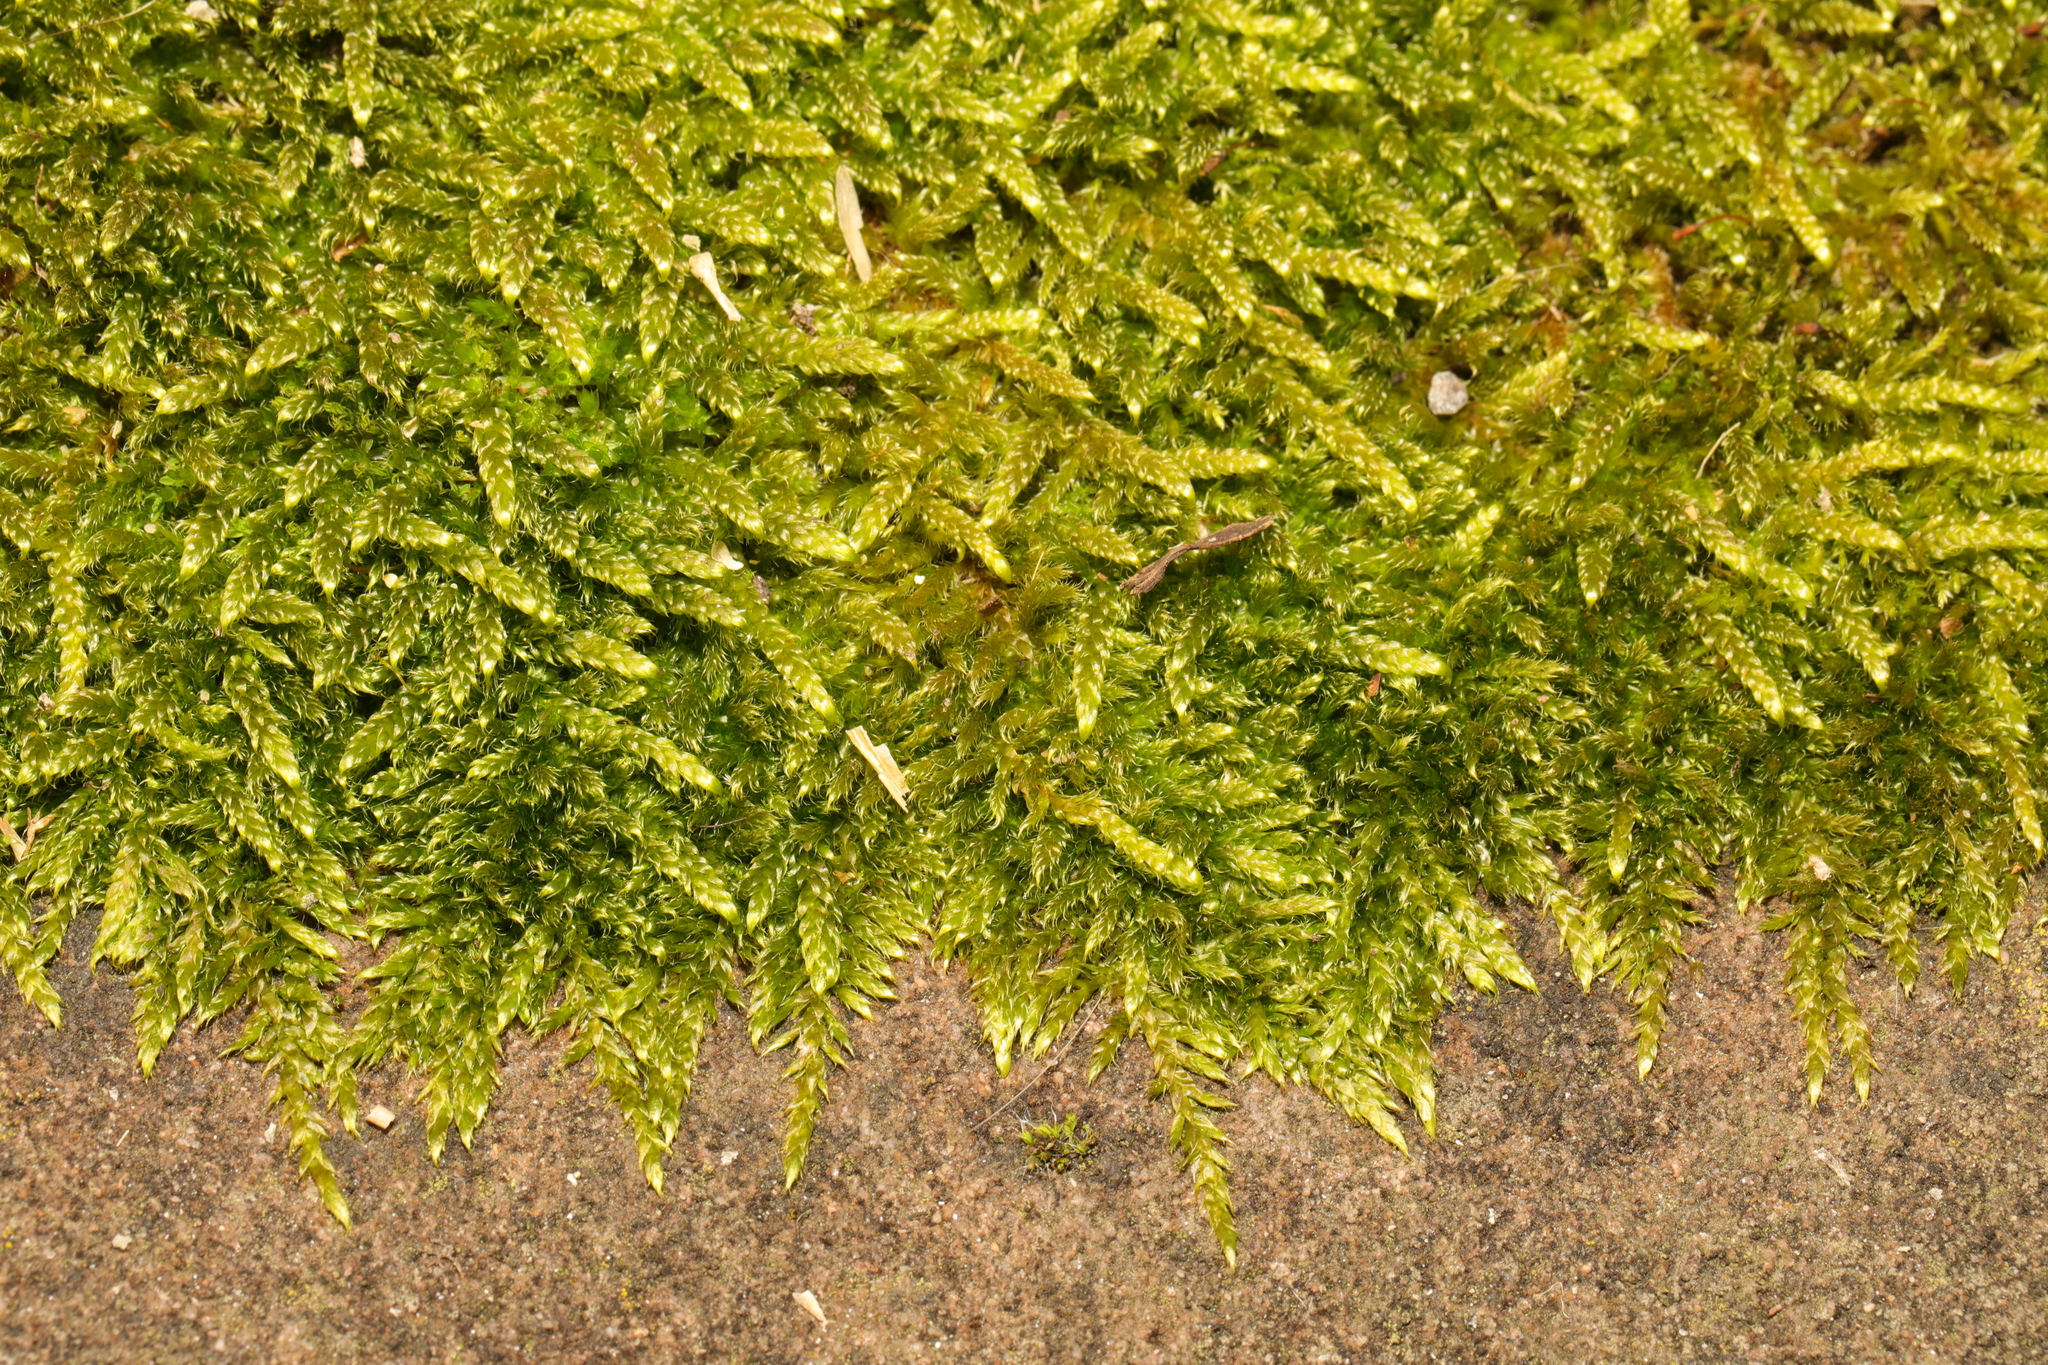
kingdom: Plantae
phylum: Bryophyta
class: Bryopsida
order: Hypnales
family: Hypnaceae
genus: Hypnum
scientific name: Hypnum cupressiforme
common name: Cypress-leaved plait-moss
